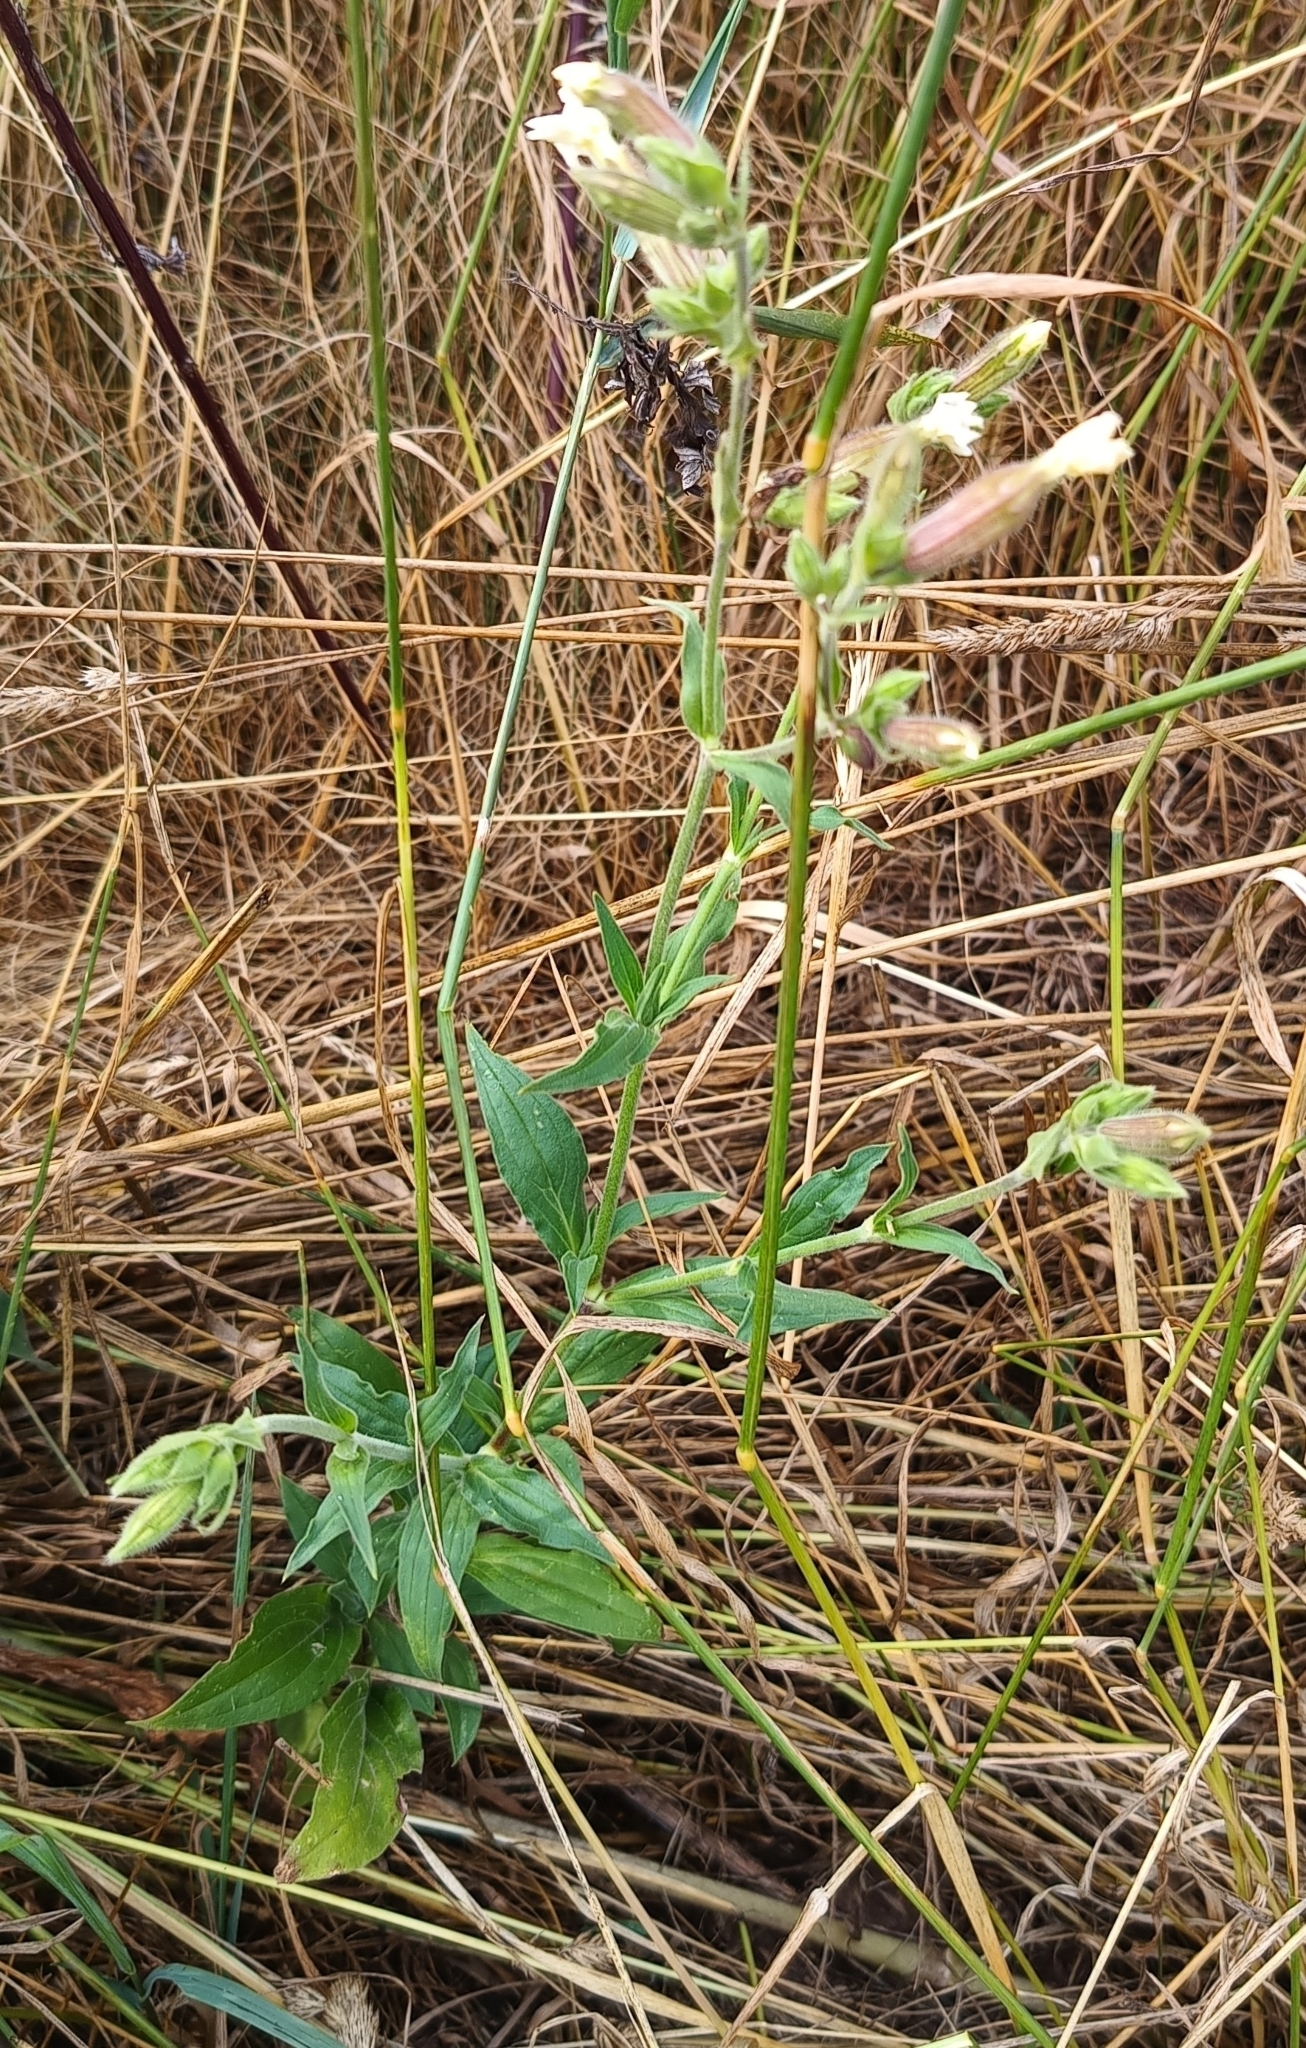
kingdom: Plantae
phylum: Tracheophyta
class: Magnoliopsida
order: Caryophyllales
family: Caryophyllaceae
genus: Silene
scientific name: Silene latifolia
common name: White campion
